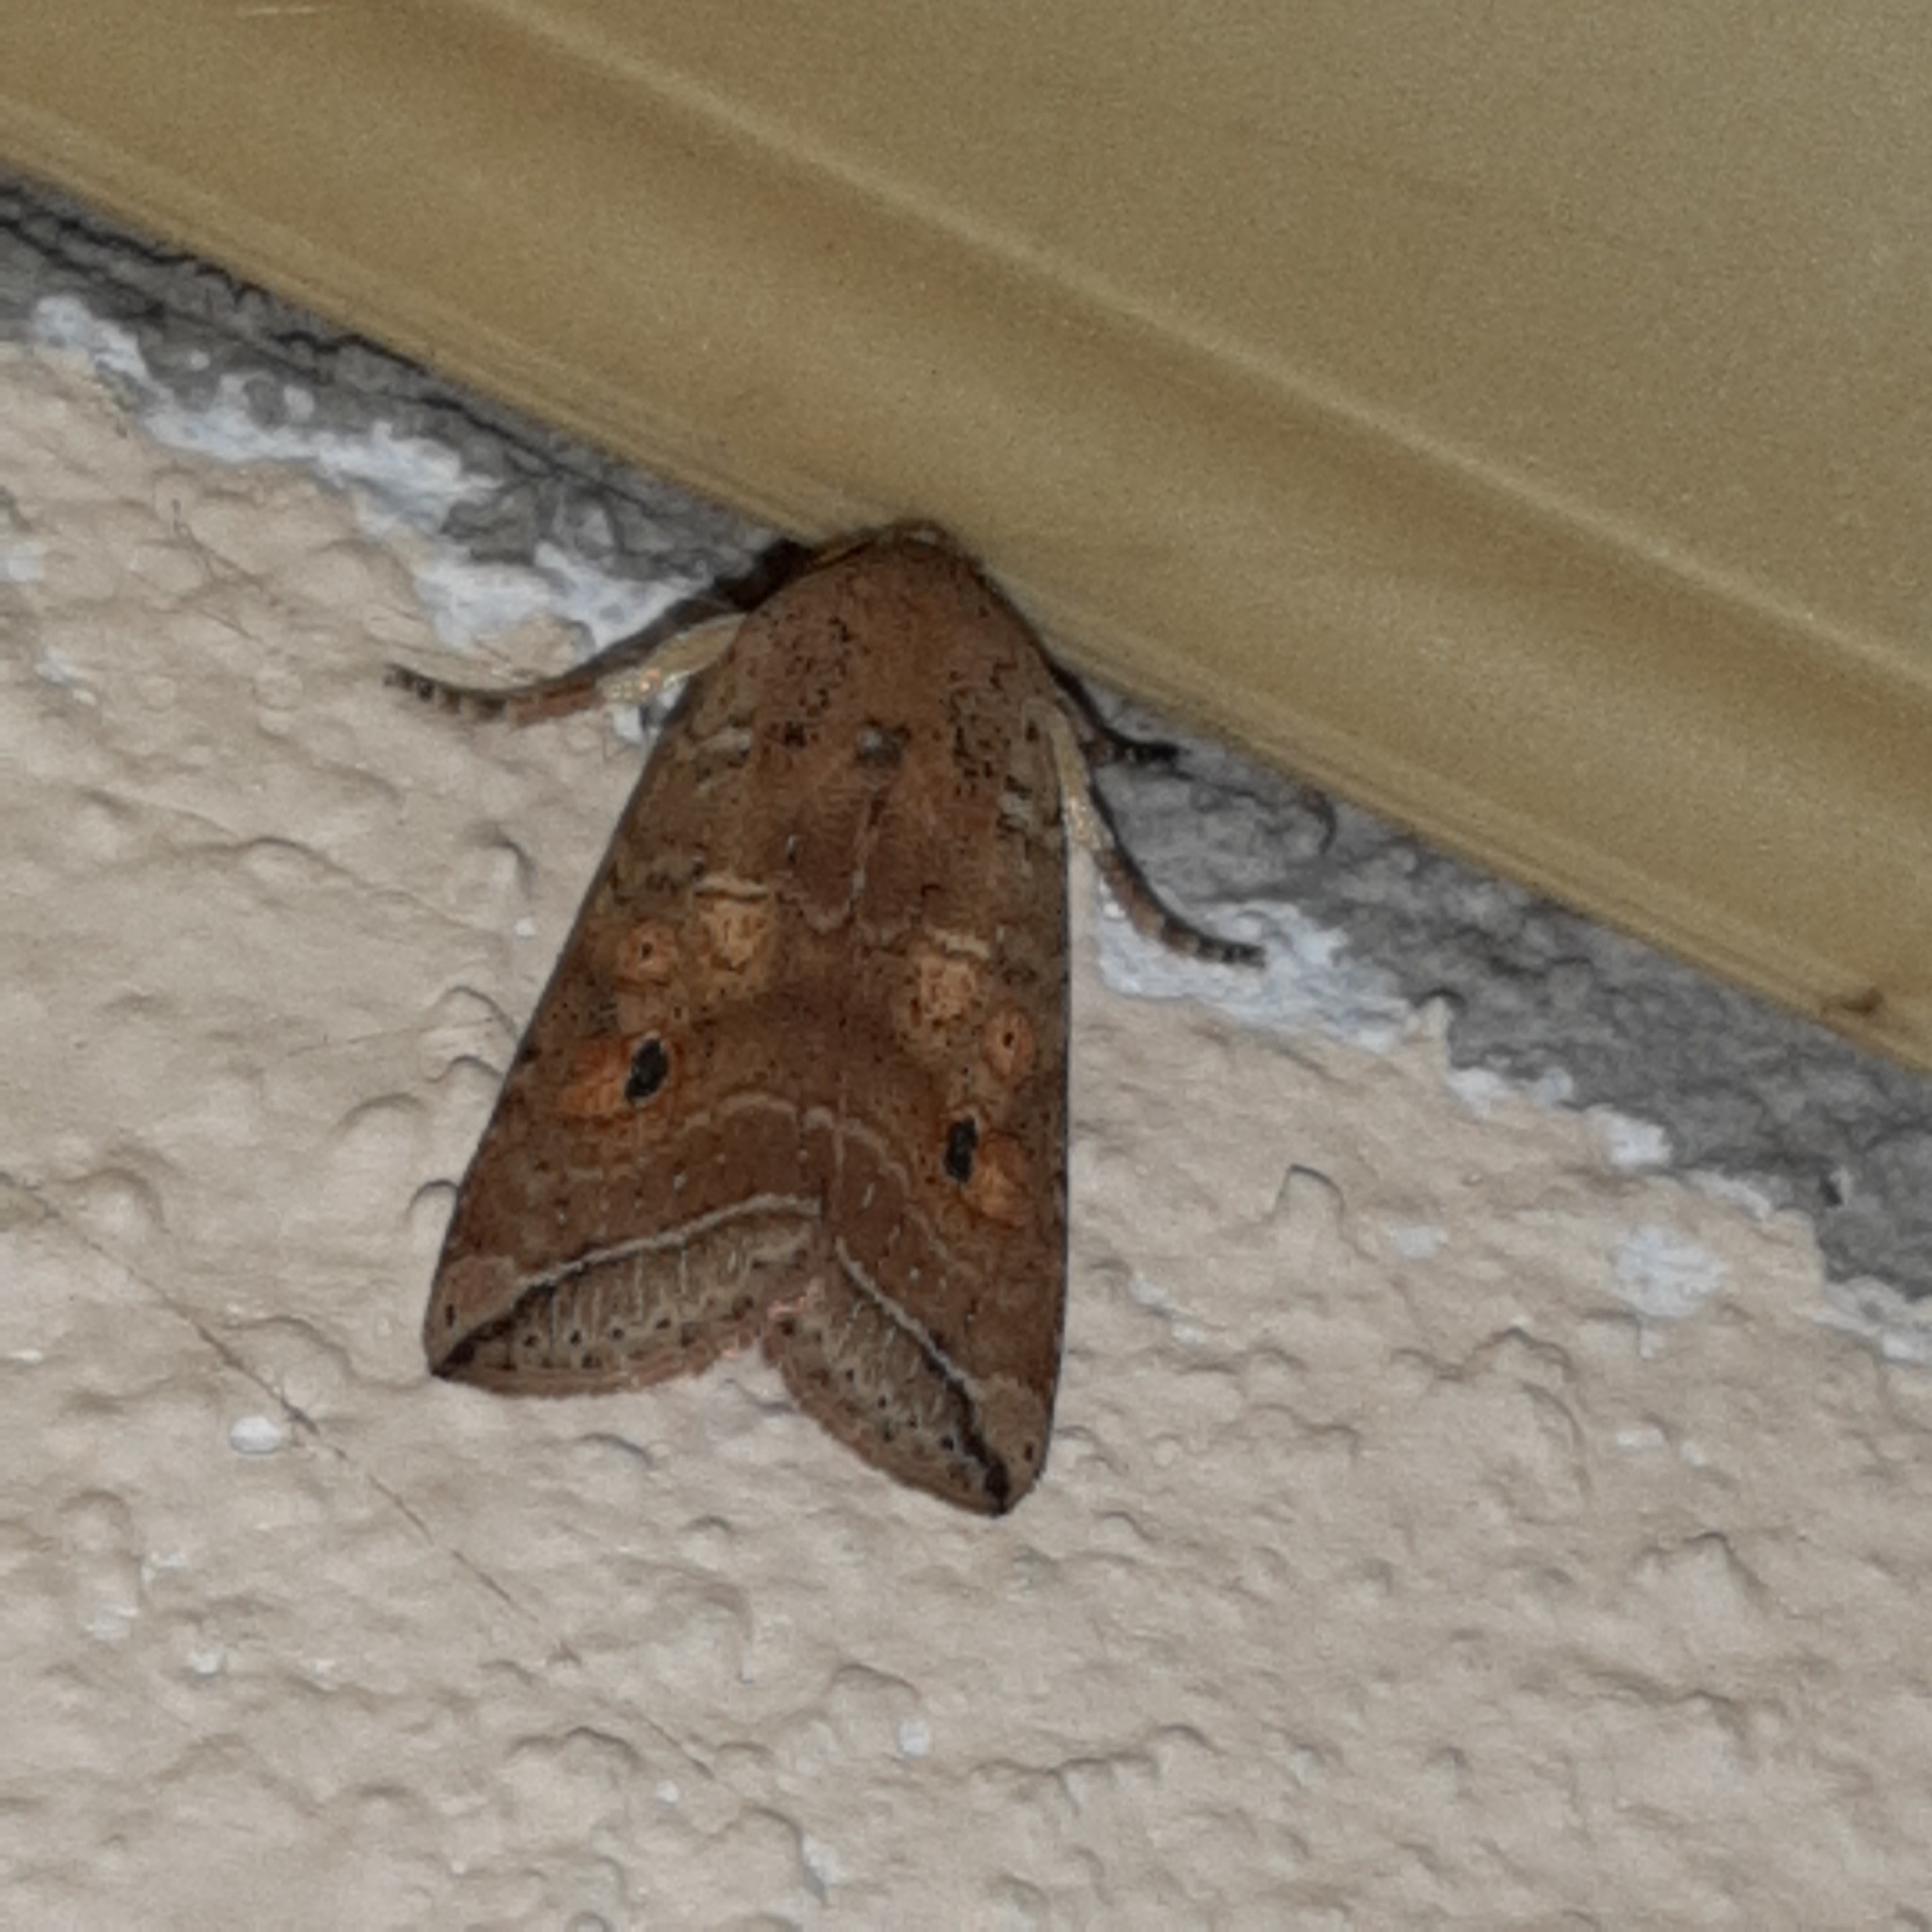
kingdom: Animalia
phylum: Arthropoda
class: Insecta
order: Lepidoptera
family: Noctuidae
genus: Eriopyga
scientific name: Eriopyga
